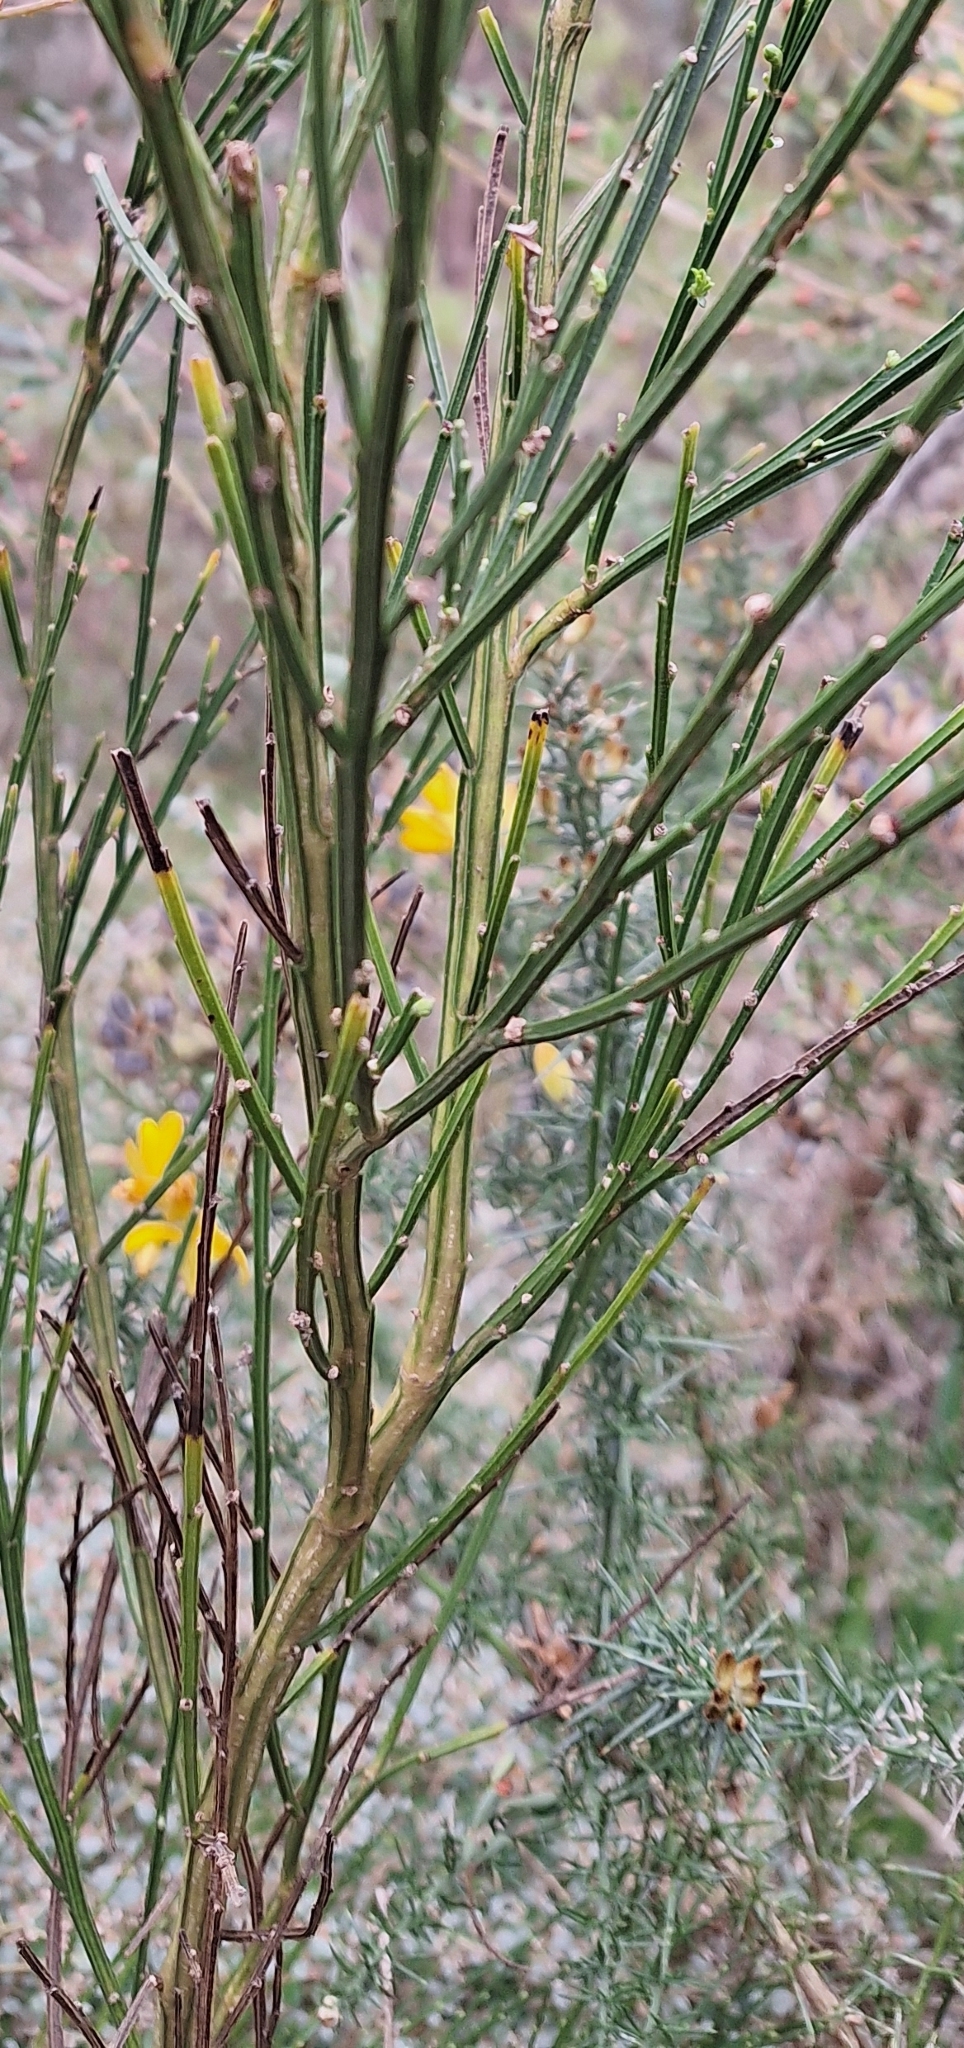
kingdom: Plantae
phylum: Tracheophyta
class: Magnoliopsida
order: Fabales
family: Fabaceae
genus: Cytisus
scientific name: Cytisus scoparius
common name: Scotch broom
